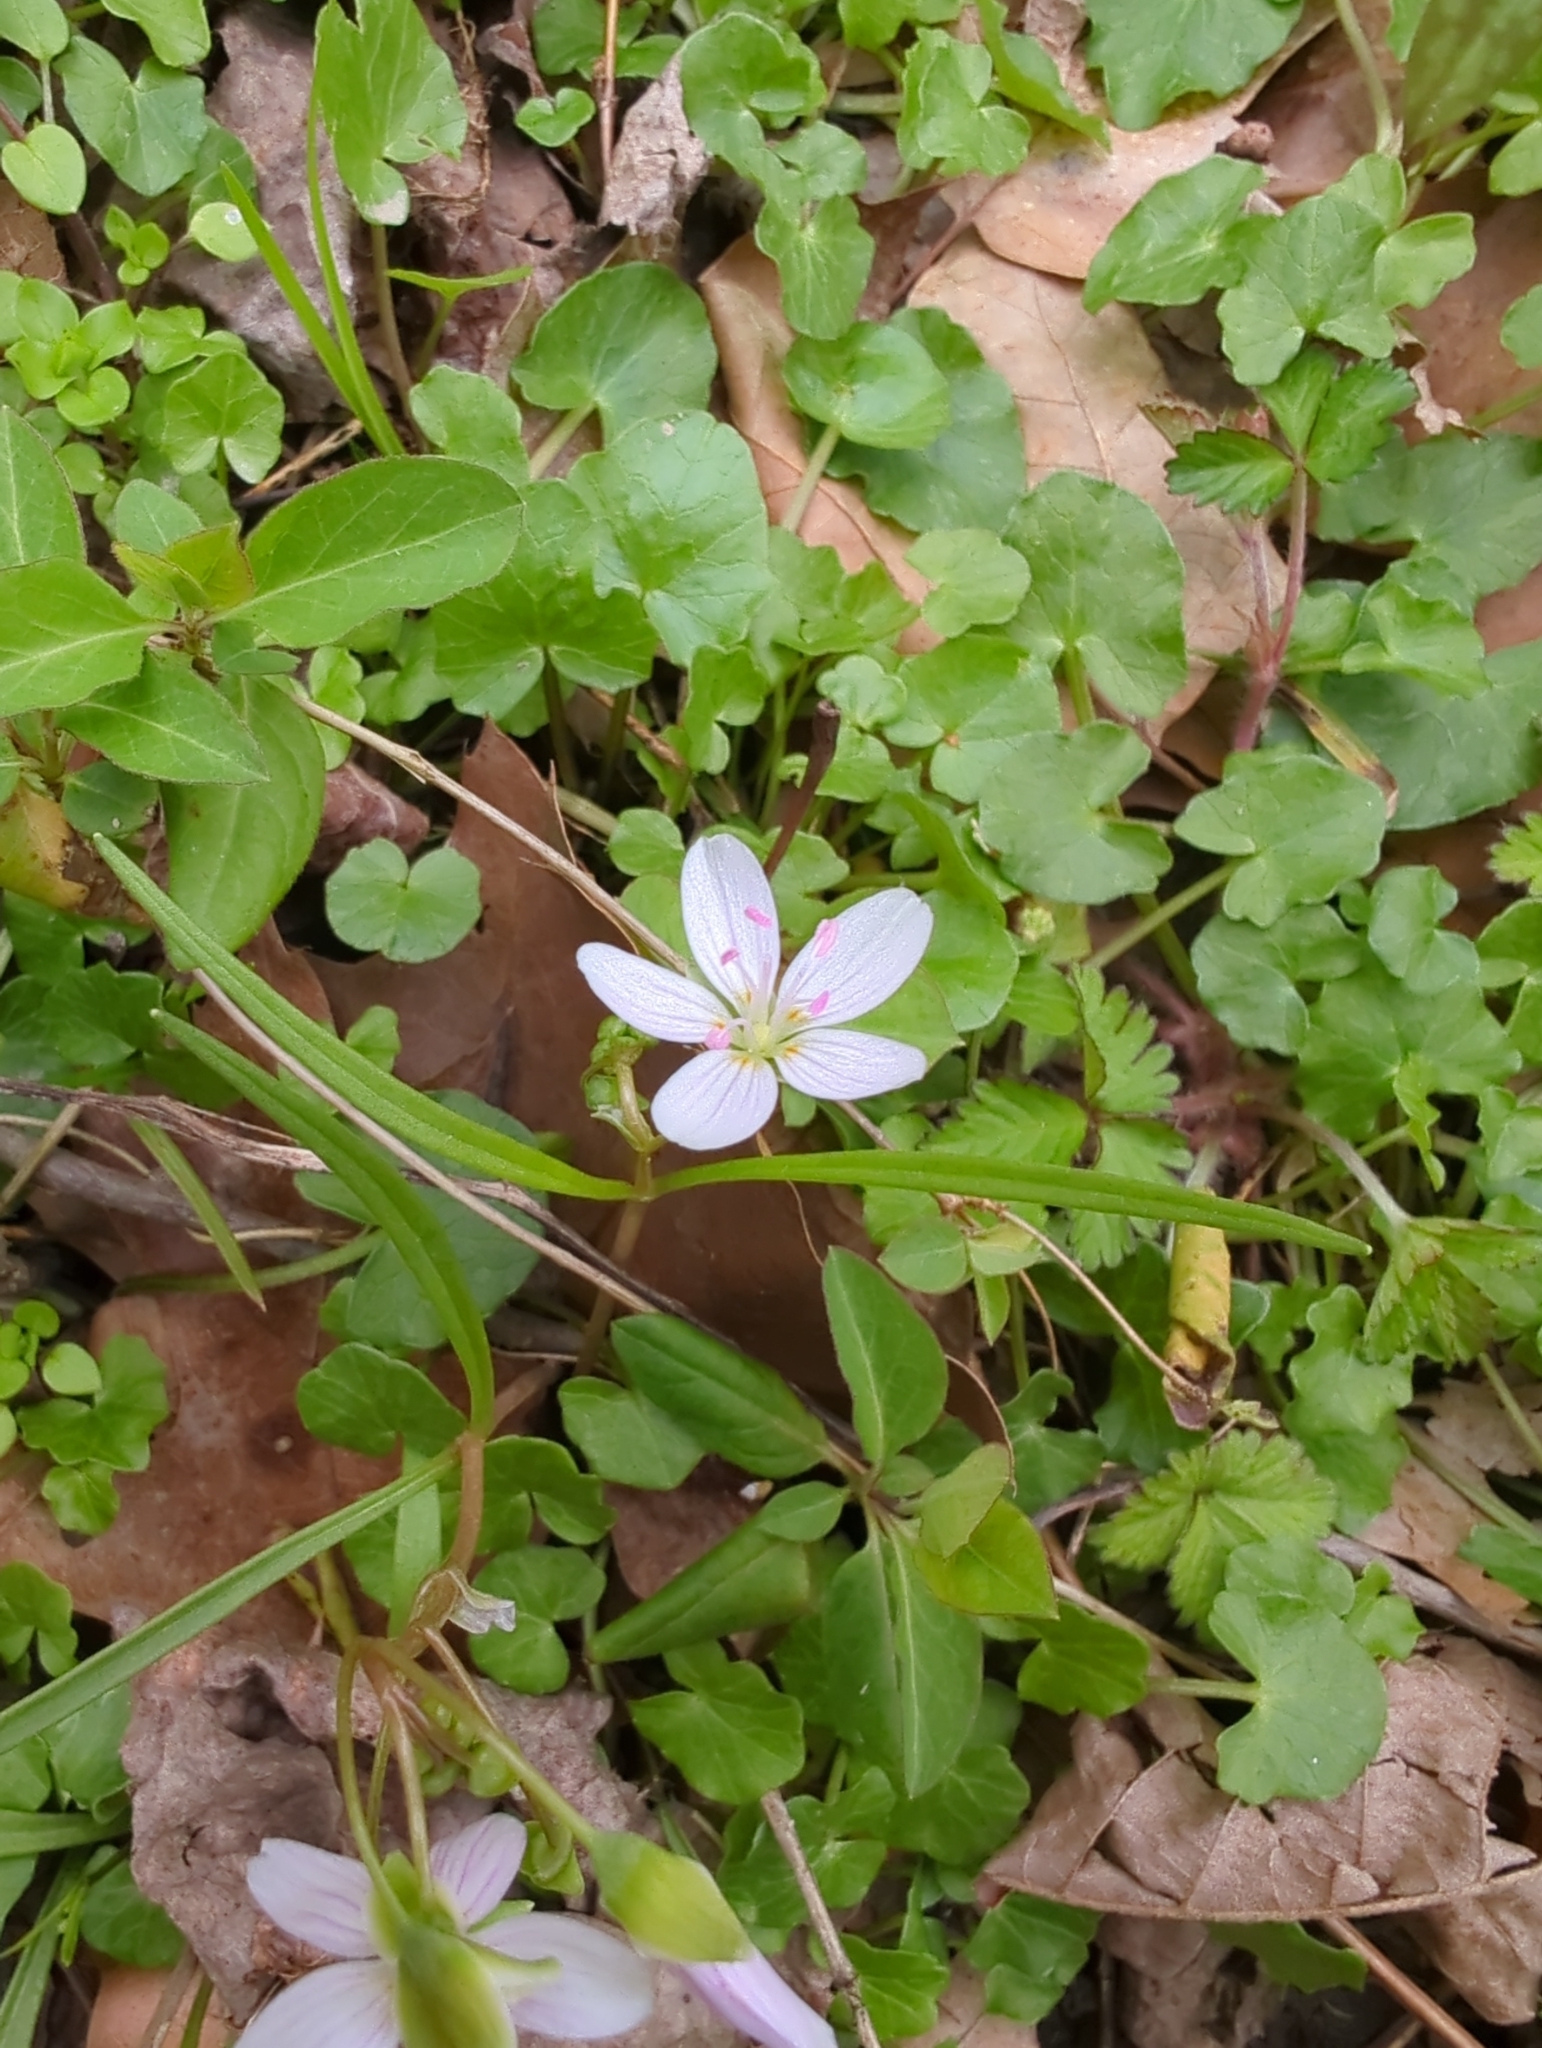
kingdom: Plantae
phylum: Tracheophyta
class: Magnoliopsida
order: Caryophyllales
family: Montiaceae
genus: Claytonia
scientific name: Claytonia virginica
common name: Virginia springbeauty
